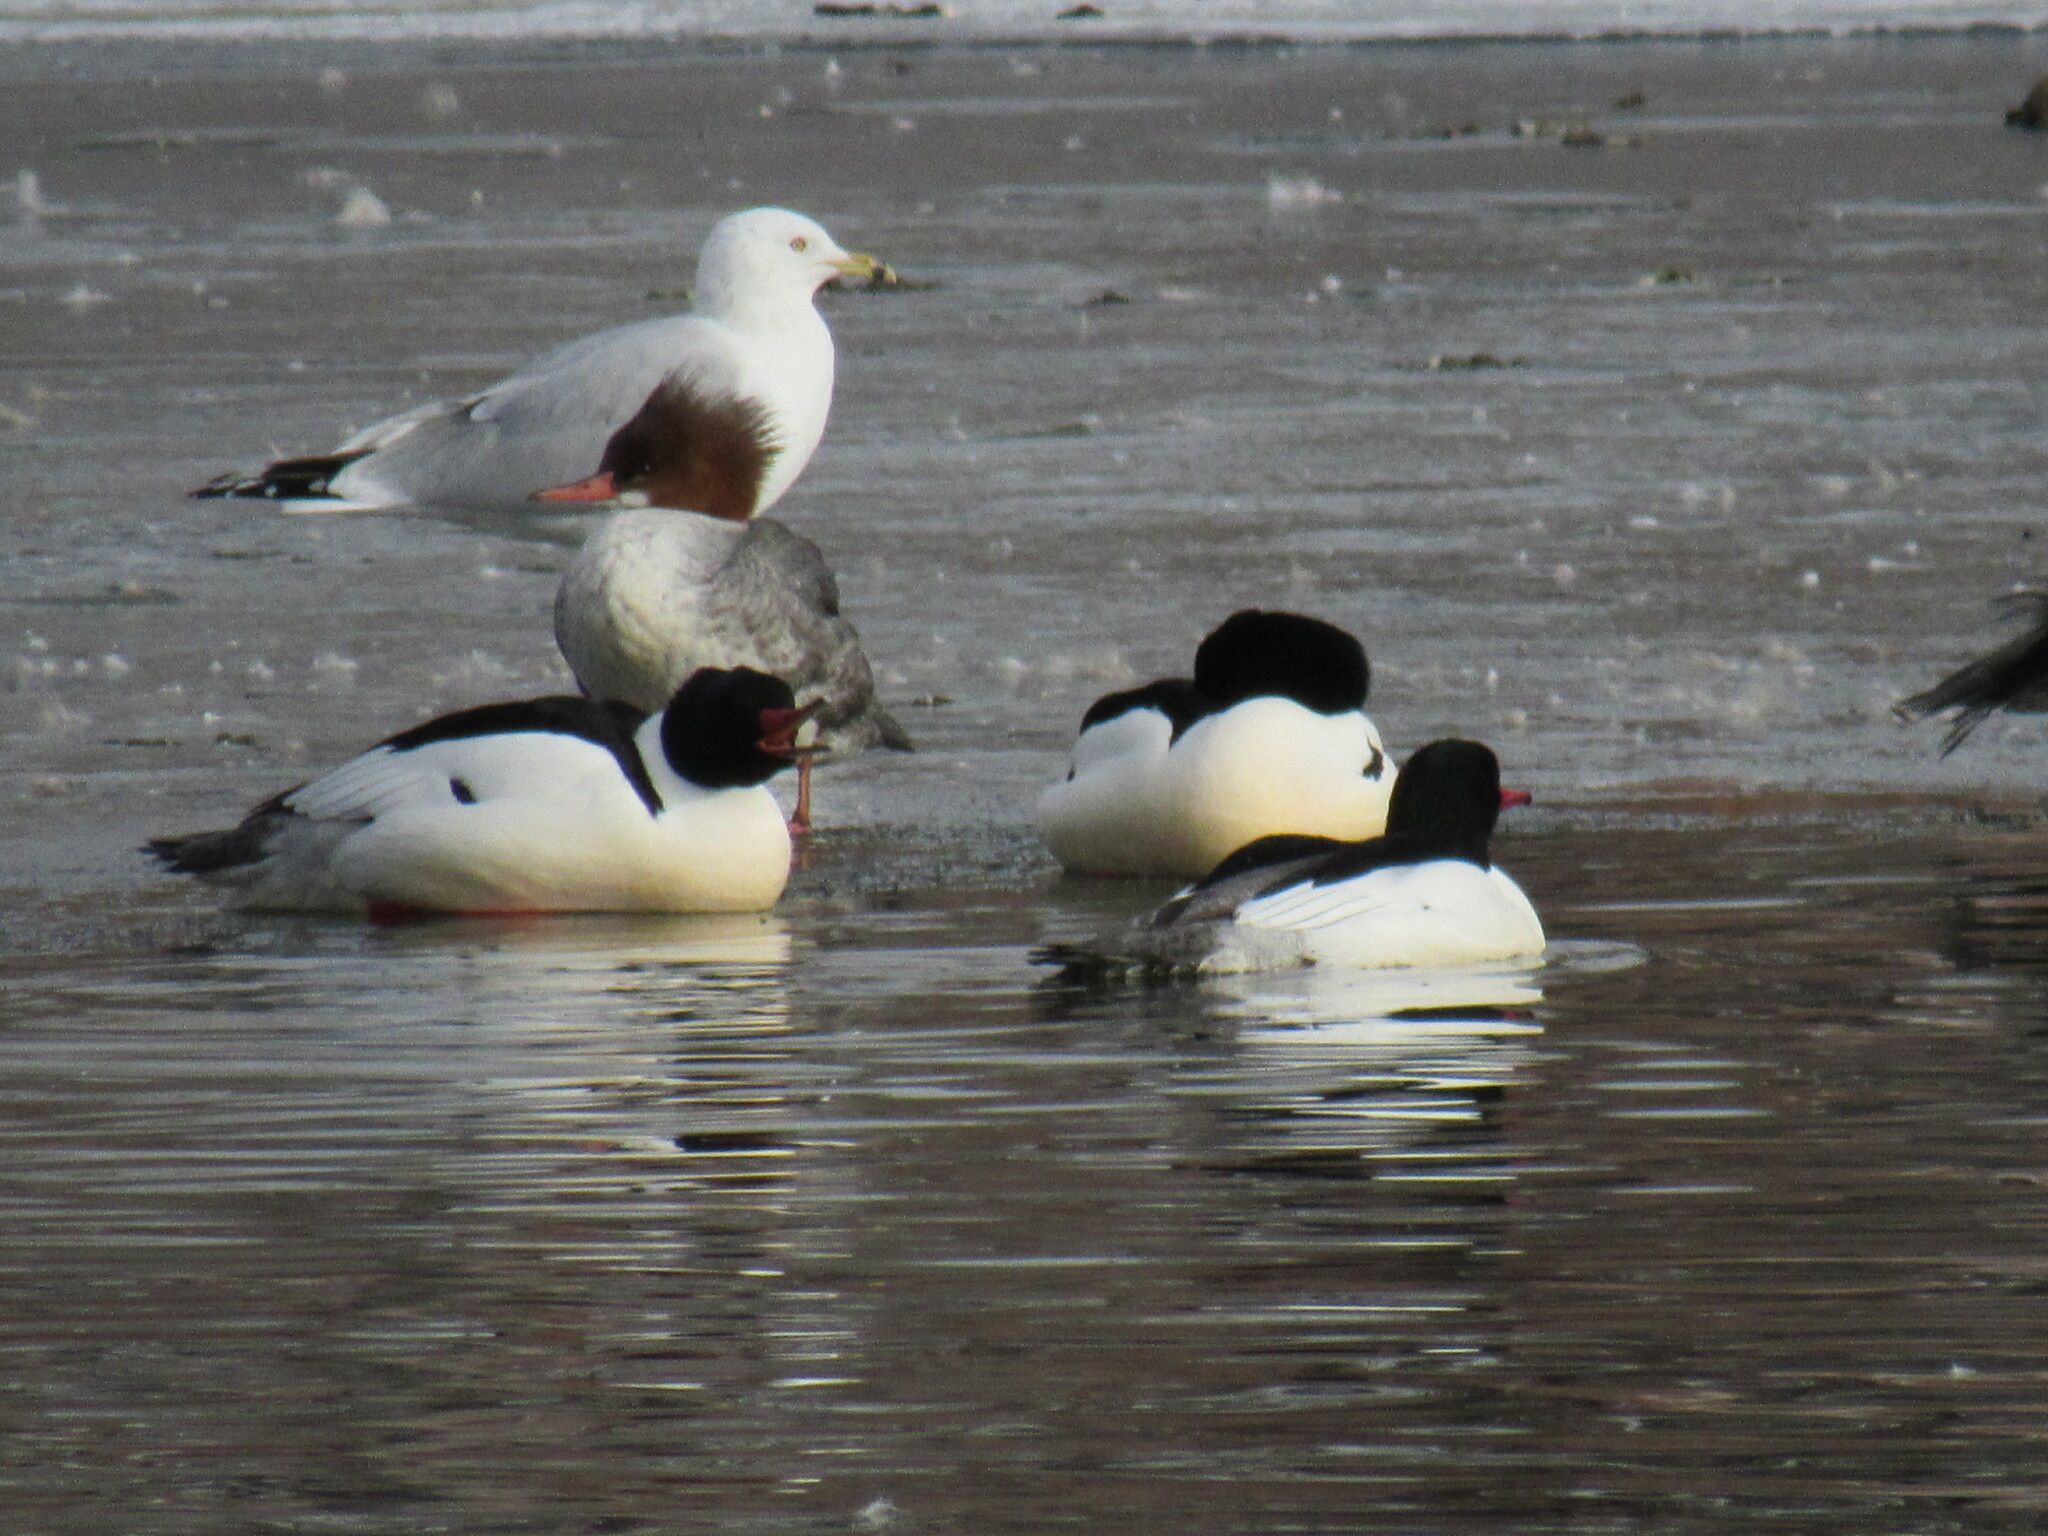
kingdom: Animalia
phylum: Chordata
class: Aves
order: Anseriformes
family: Anatidae
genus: Mergus
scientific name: Mergus merganser
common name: Common merganser
